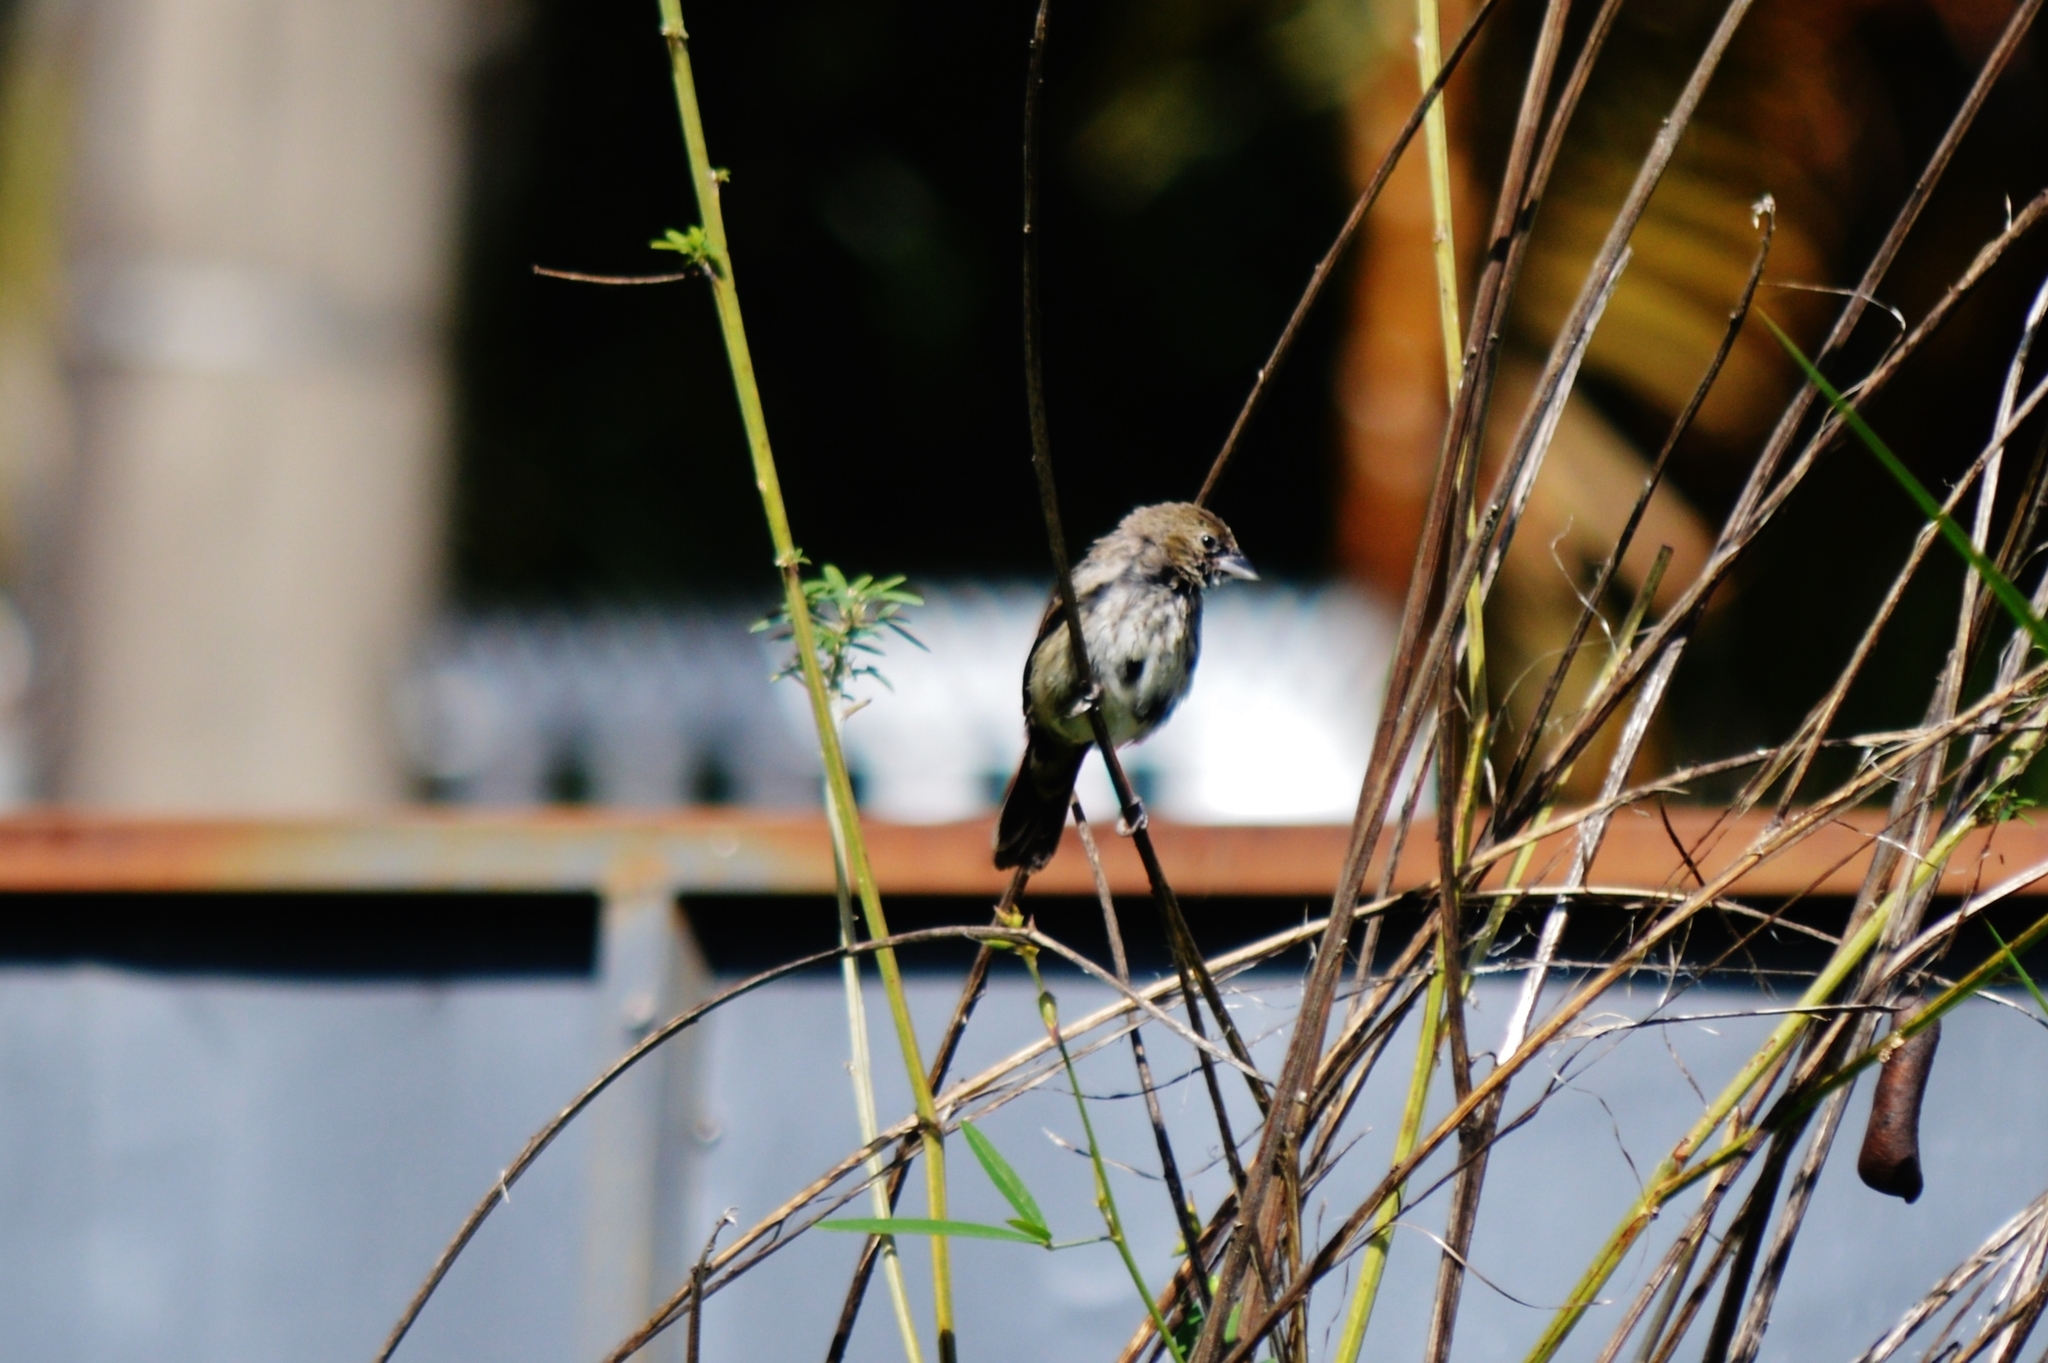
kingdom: Animalia
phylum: Chordata
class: Aves
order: Passeriformes
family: Thraupidae
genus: Volatinia
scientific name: Volatinia jacarina
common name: Blue-black grassquit
